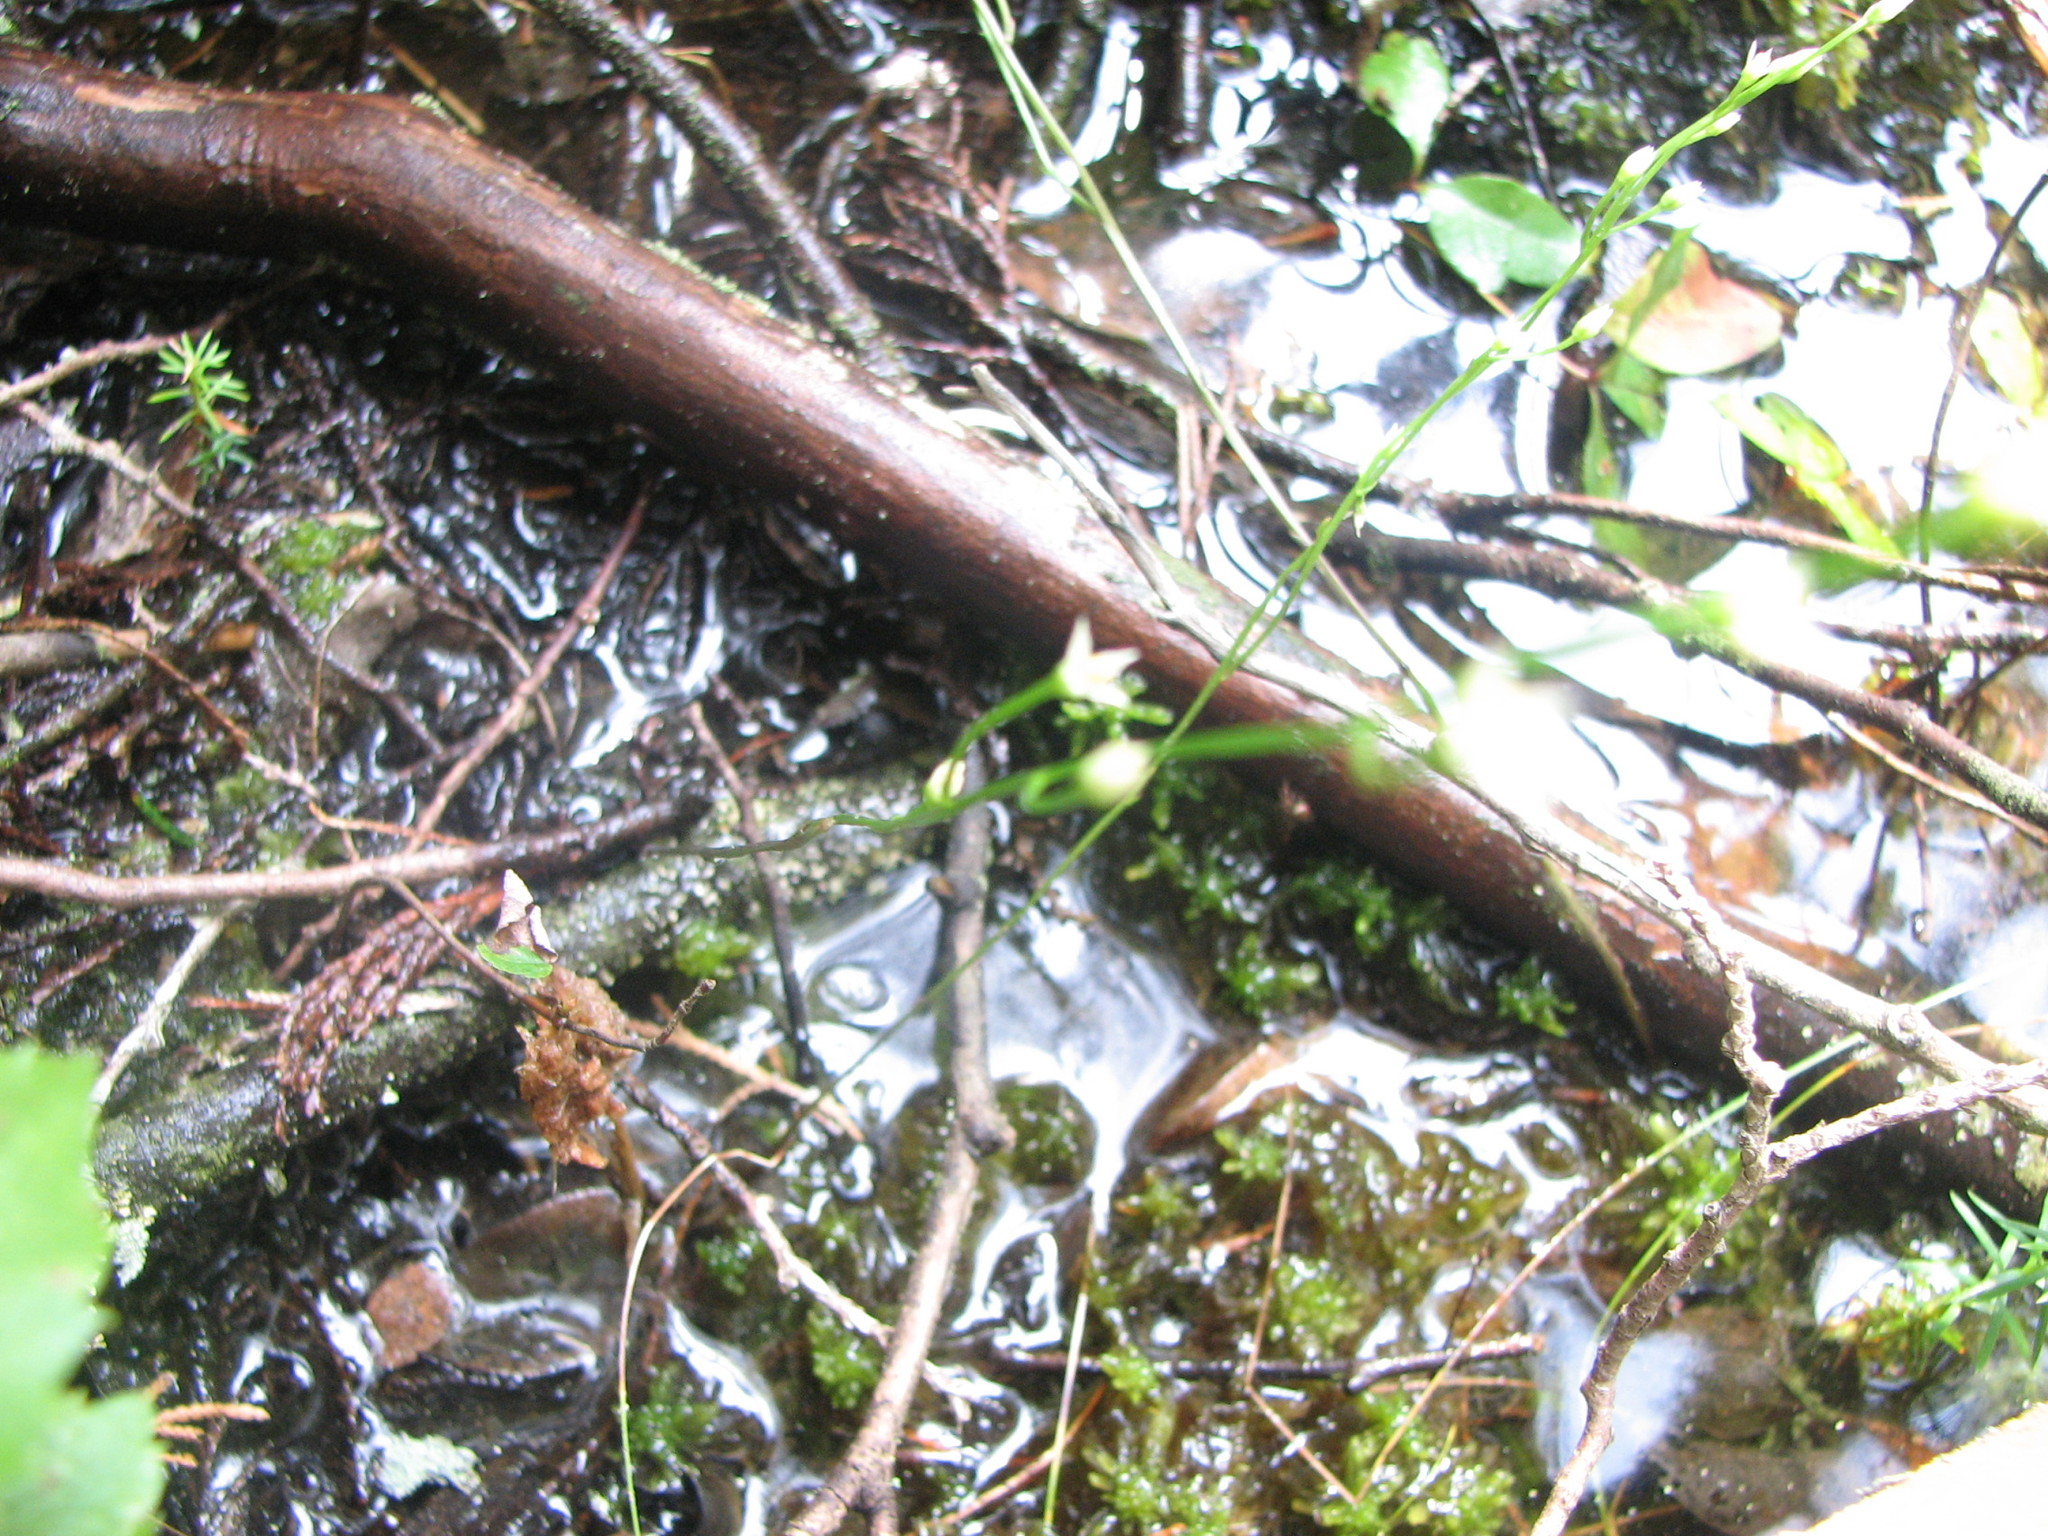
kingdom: Plantae
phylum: Tracheophyta
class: Magnoliopsida
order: Gentianales
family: Gentianaceae
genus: Bartonia
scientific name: Bartonia virginica
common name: Yellow bartonia
